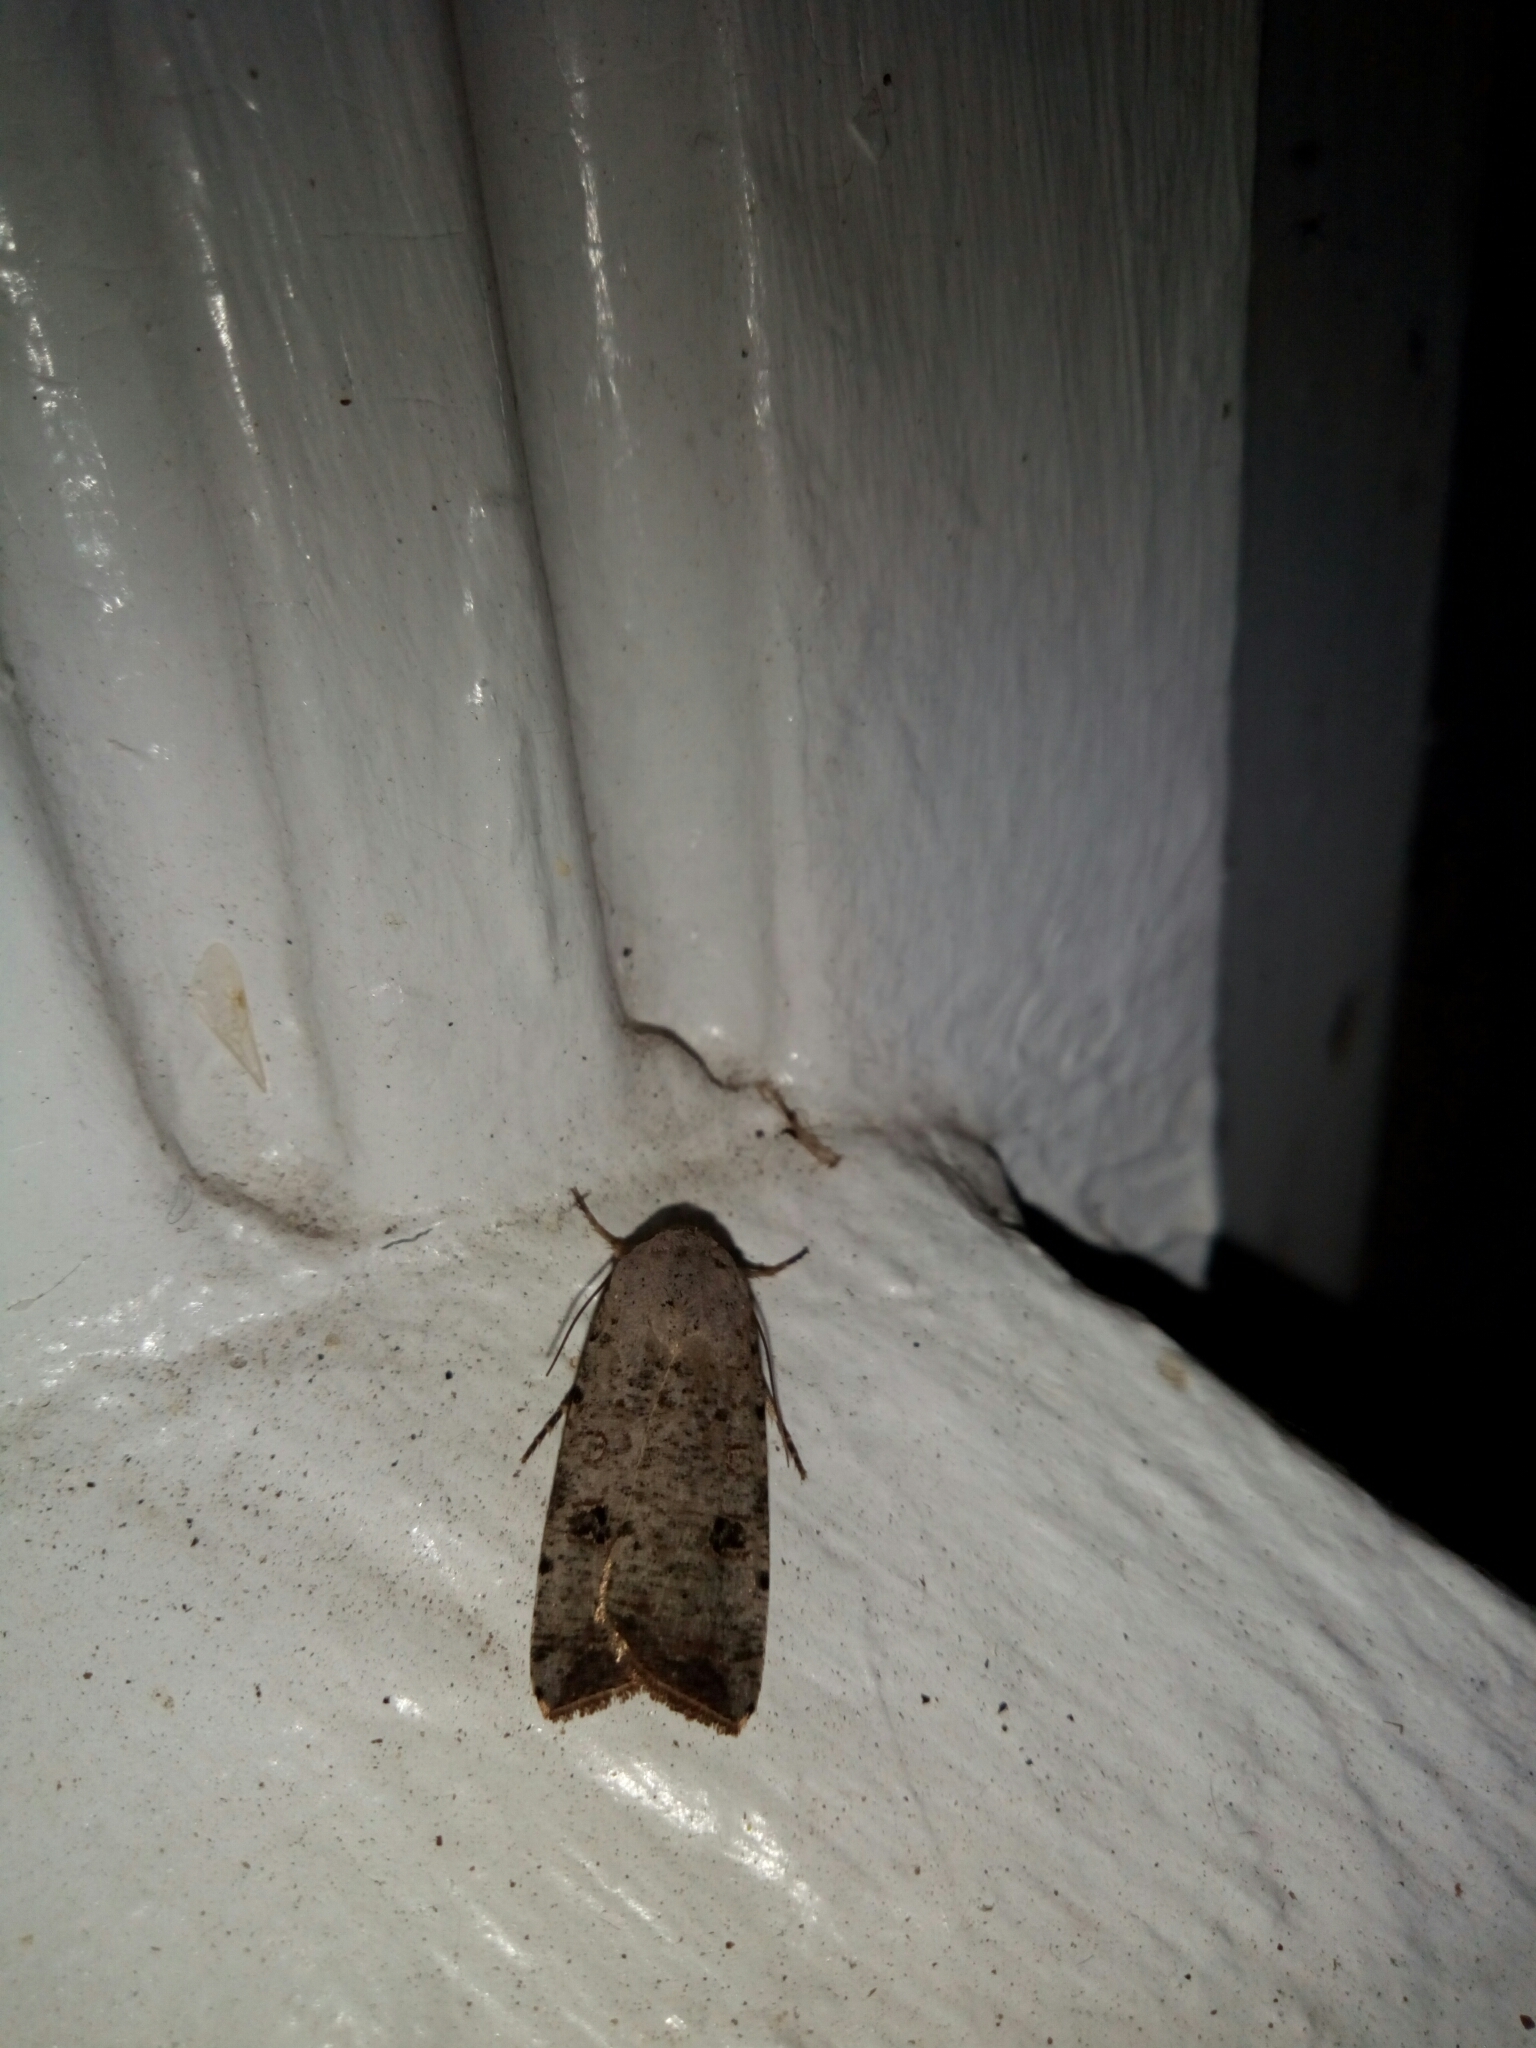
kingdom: Animalia
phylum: Arthropoda
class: Insecta
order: Lepidoptera
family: Noctuidae
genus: Anicla
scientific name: Anicla infecta
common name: Green cutworm
